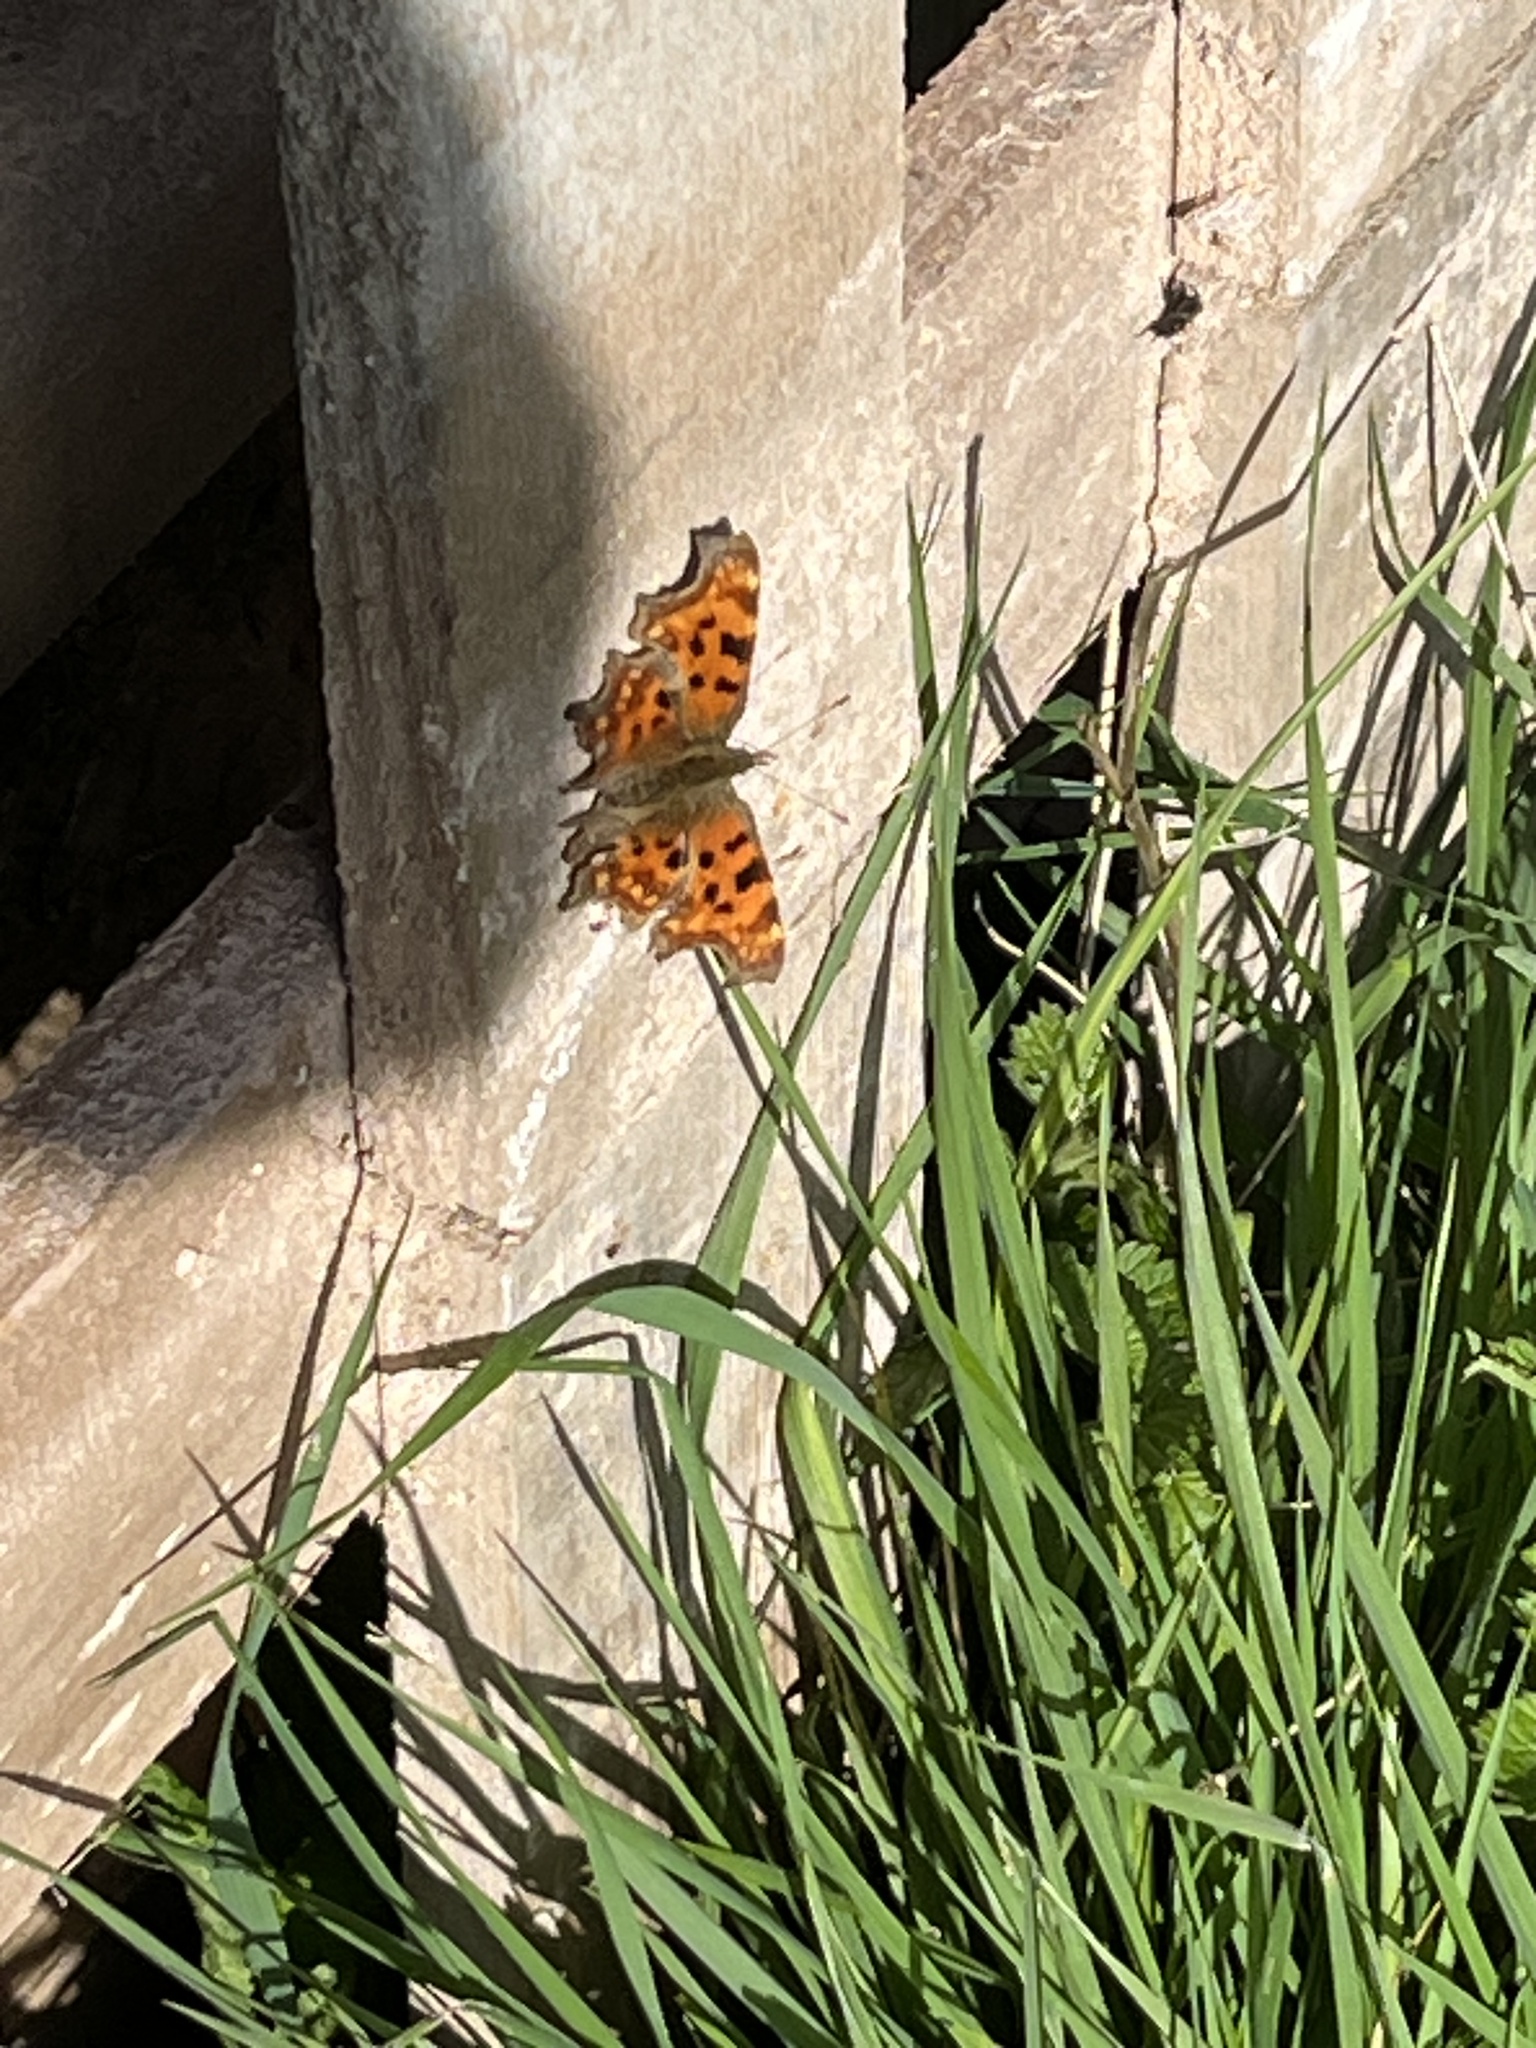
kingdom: Animalia
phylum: Arthropoda
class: Insecta
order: Lepidoptera
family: Nymphalidae
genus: Polygonia
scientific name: Polygonia c-album
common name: Comma
